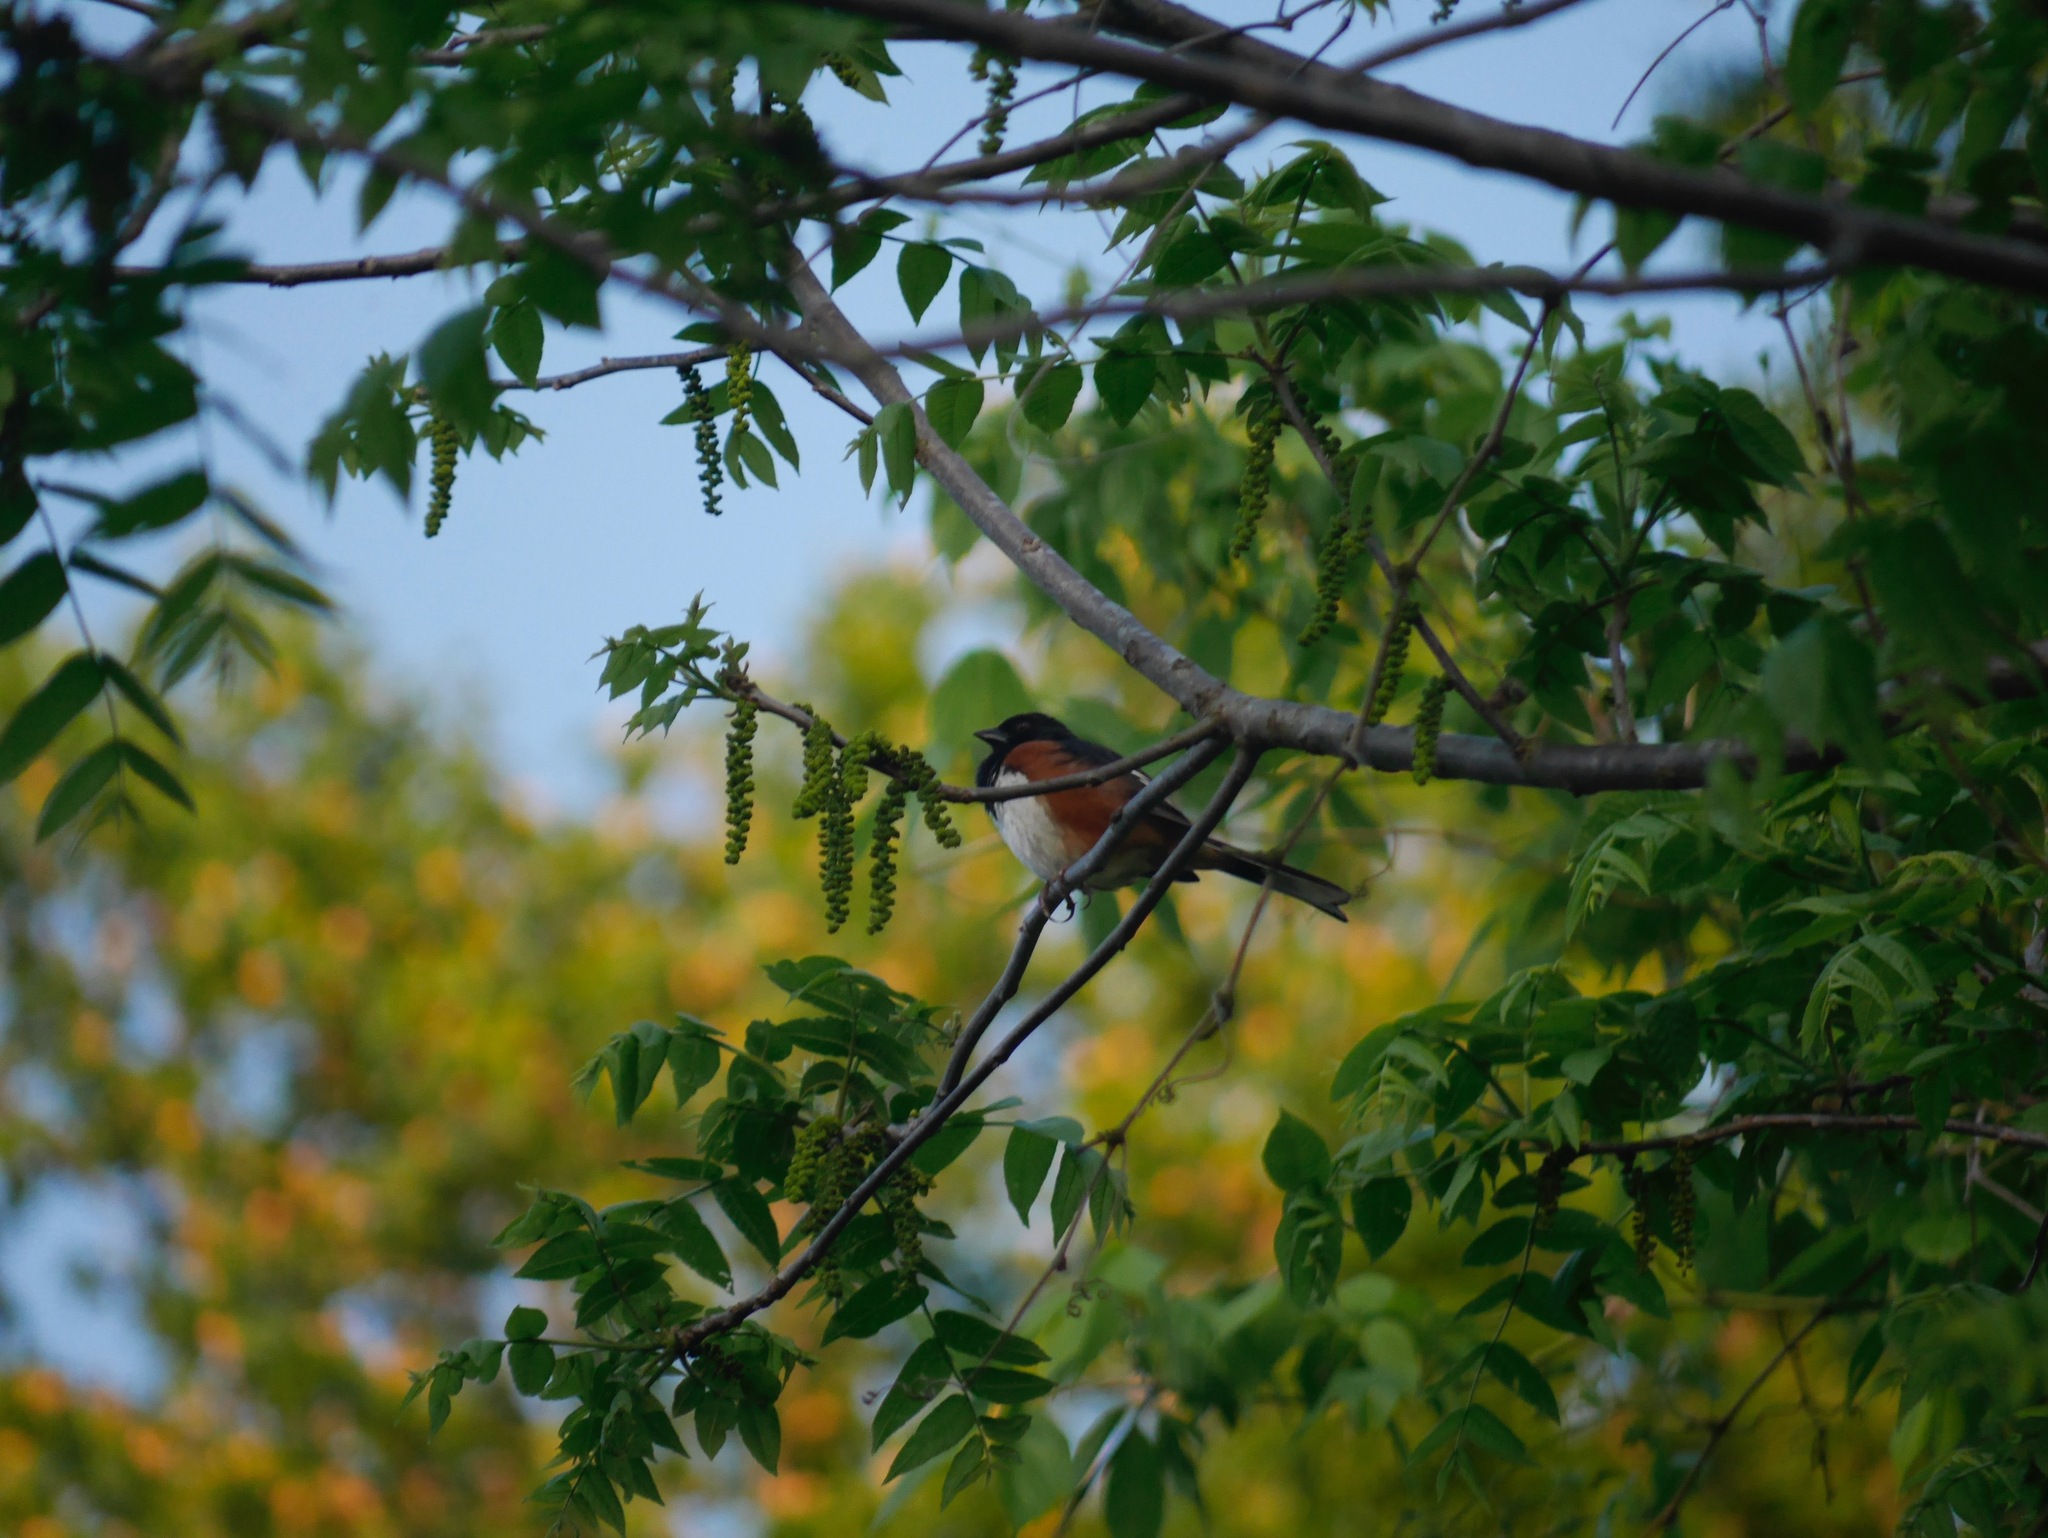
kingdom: Animalia
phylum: Chordata
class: Aves
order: Passeriformes
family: Passerellidae
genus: Pipilo
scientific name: Pipilo erythrophthalmus
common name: Eastern towhee
